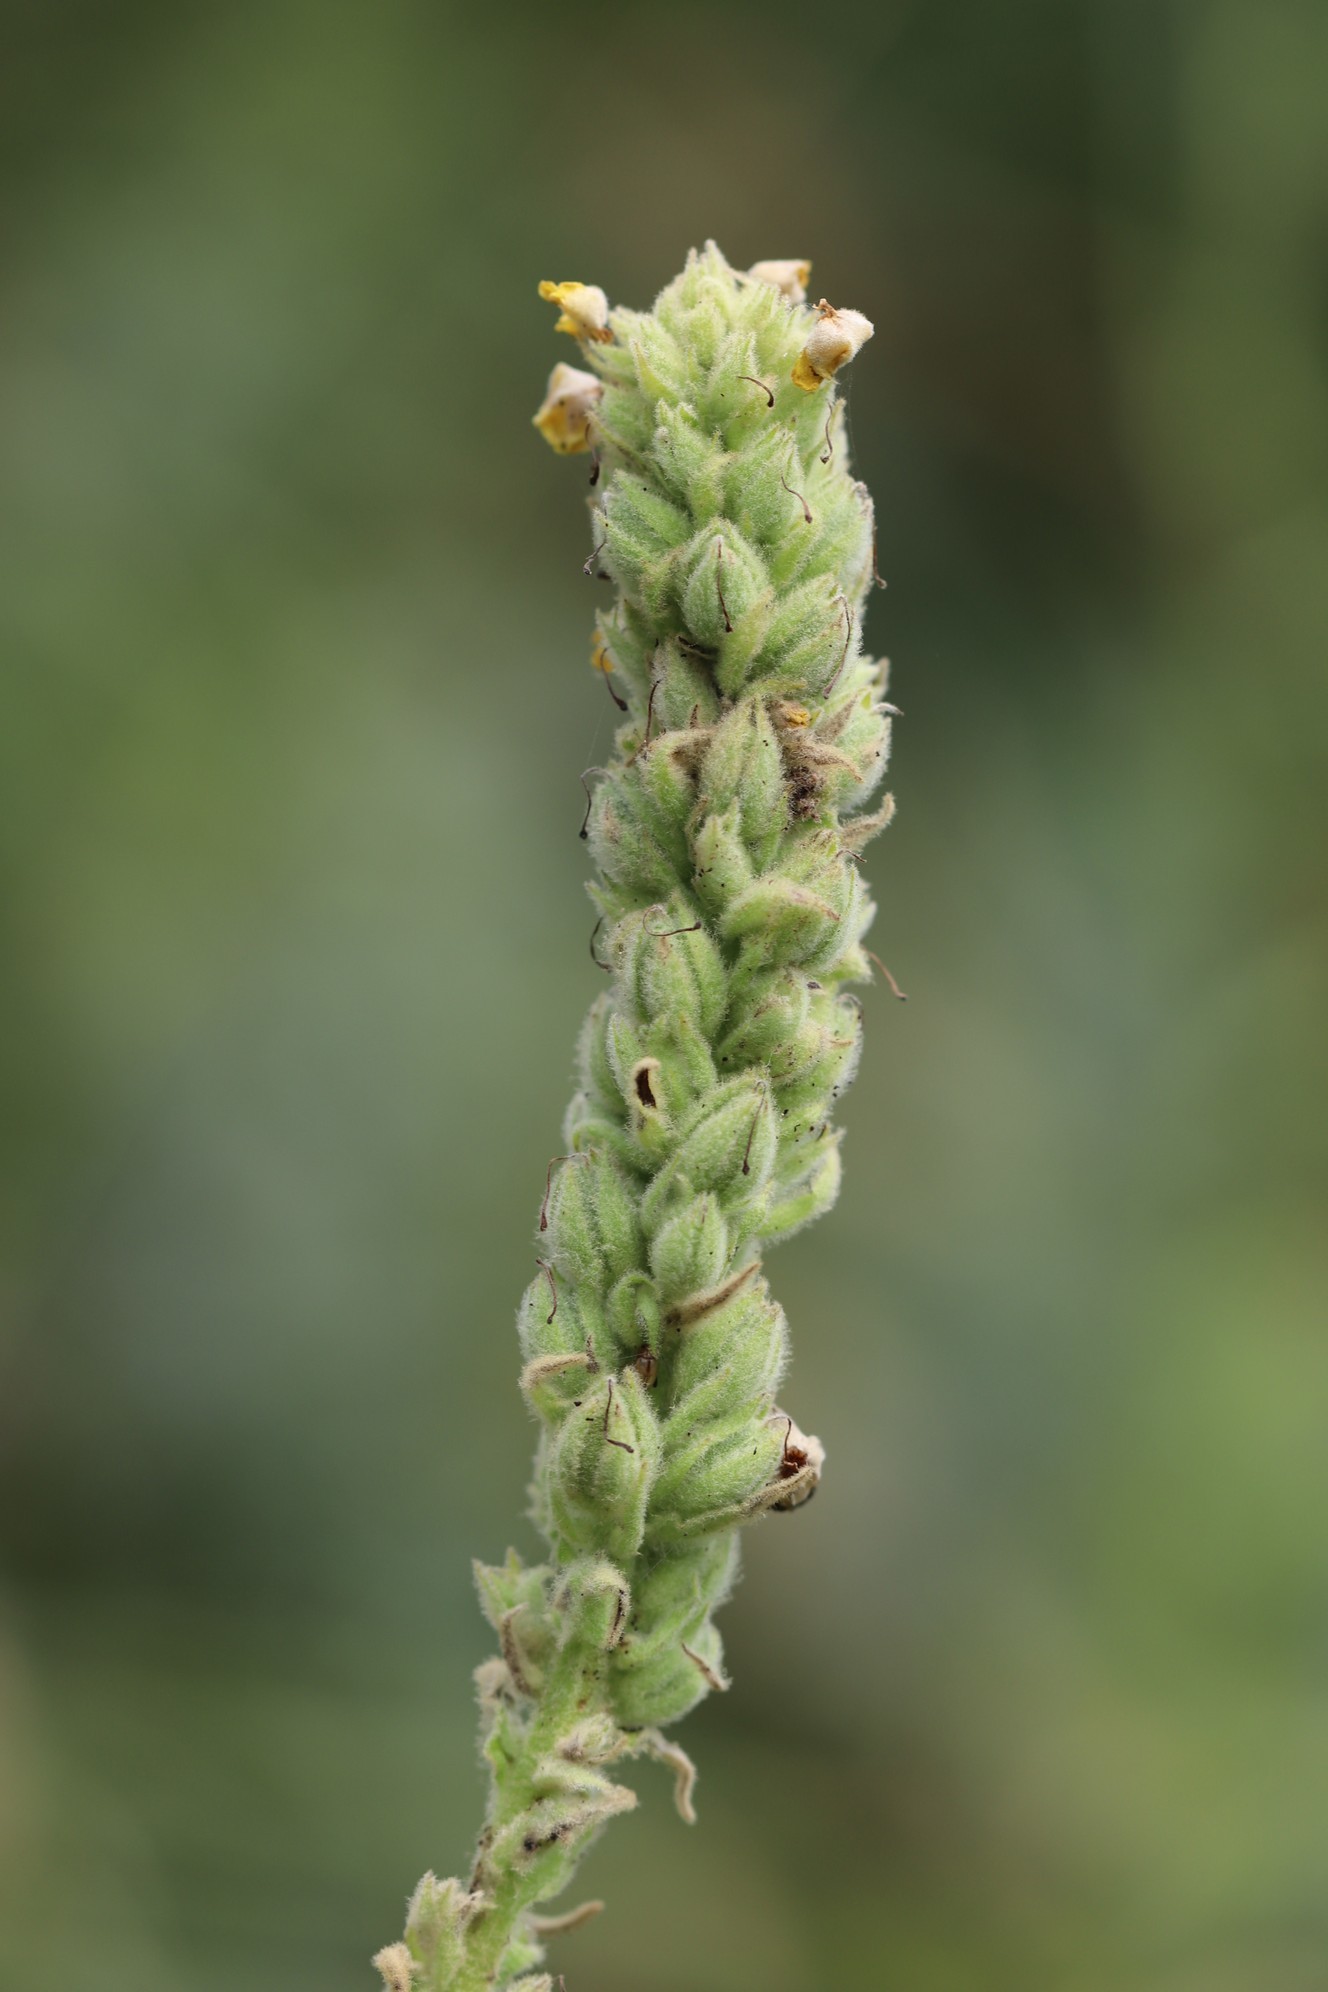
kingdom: Plantae
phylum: Tracheophyta
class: Magnoliopsida
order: Lamiales
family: Scrophulariaceae
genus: Verbascum
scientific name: Verbascum thapsus
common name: Common mullein
